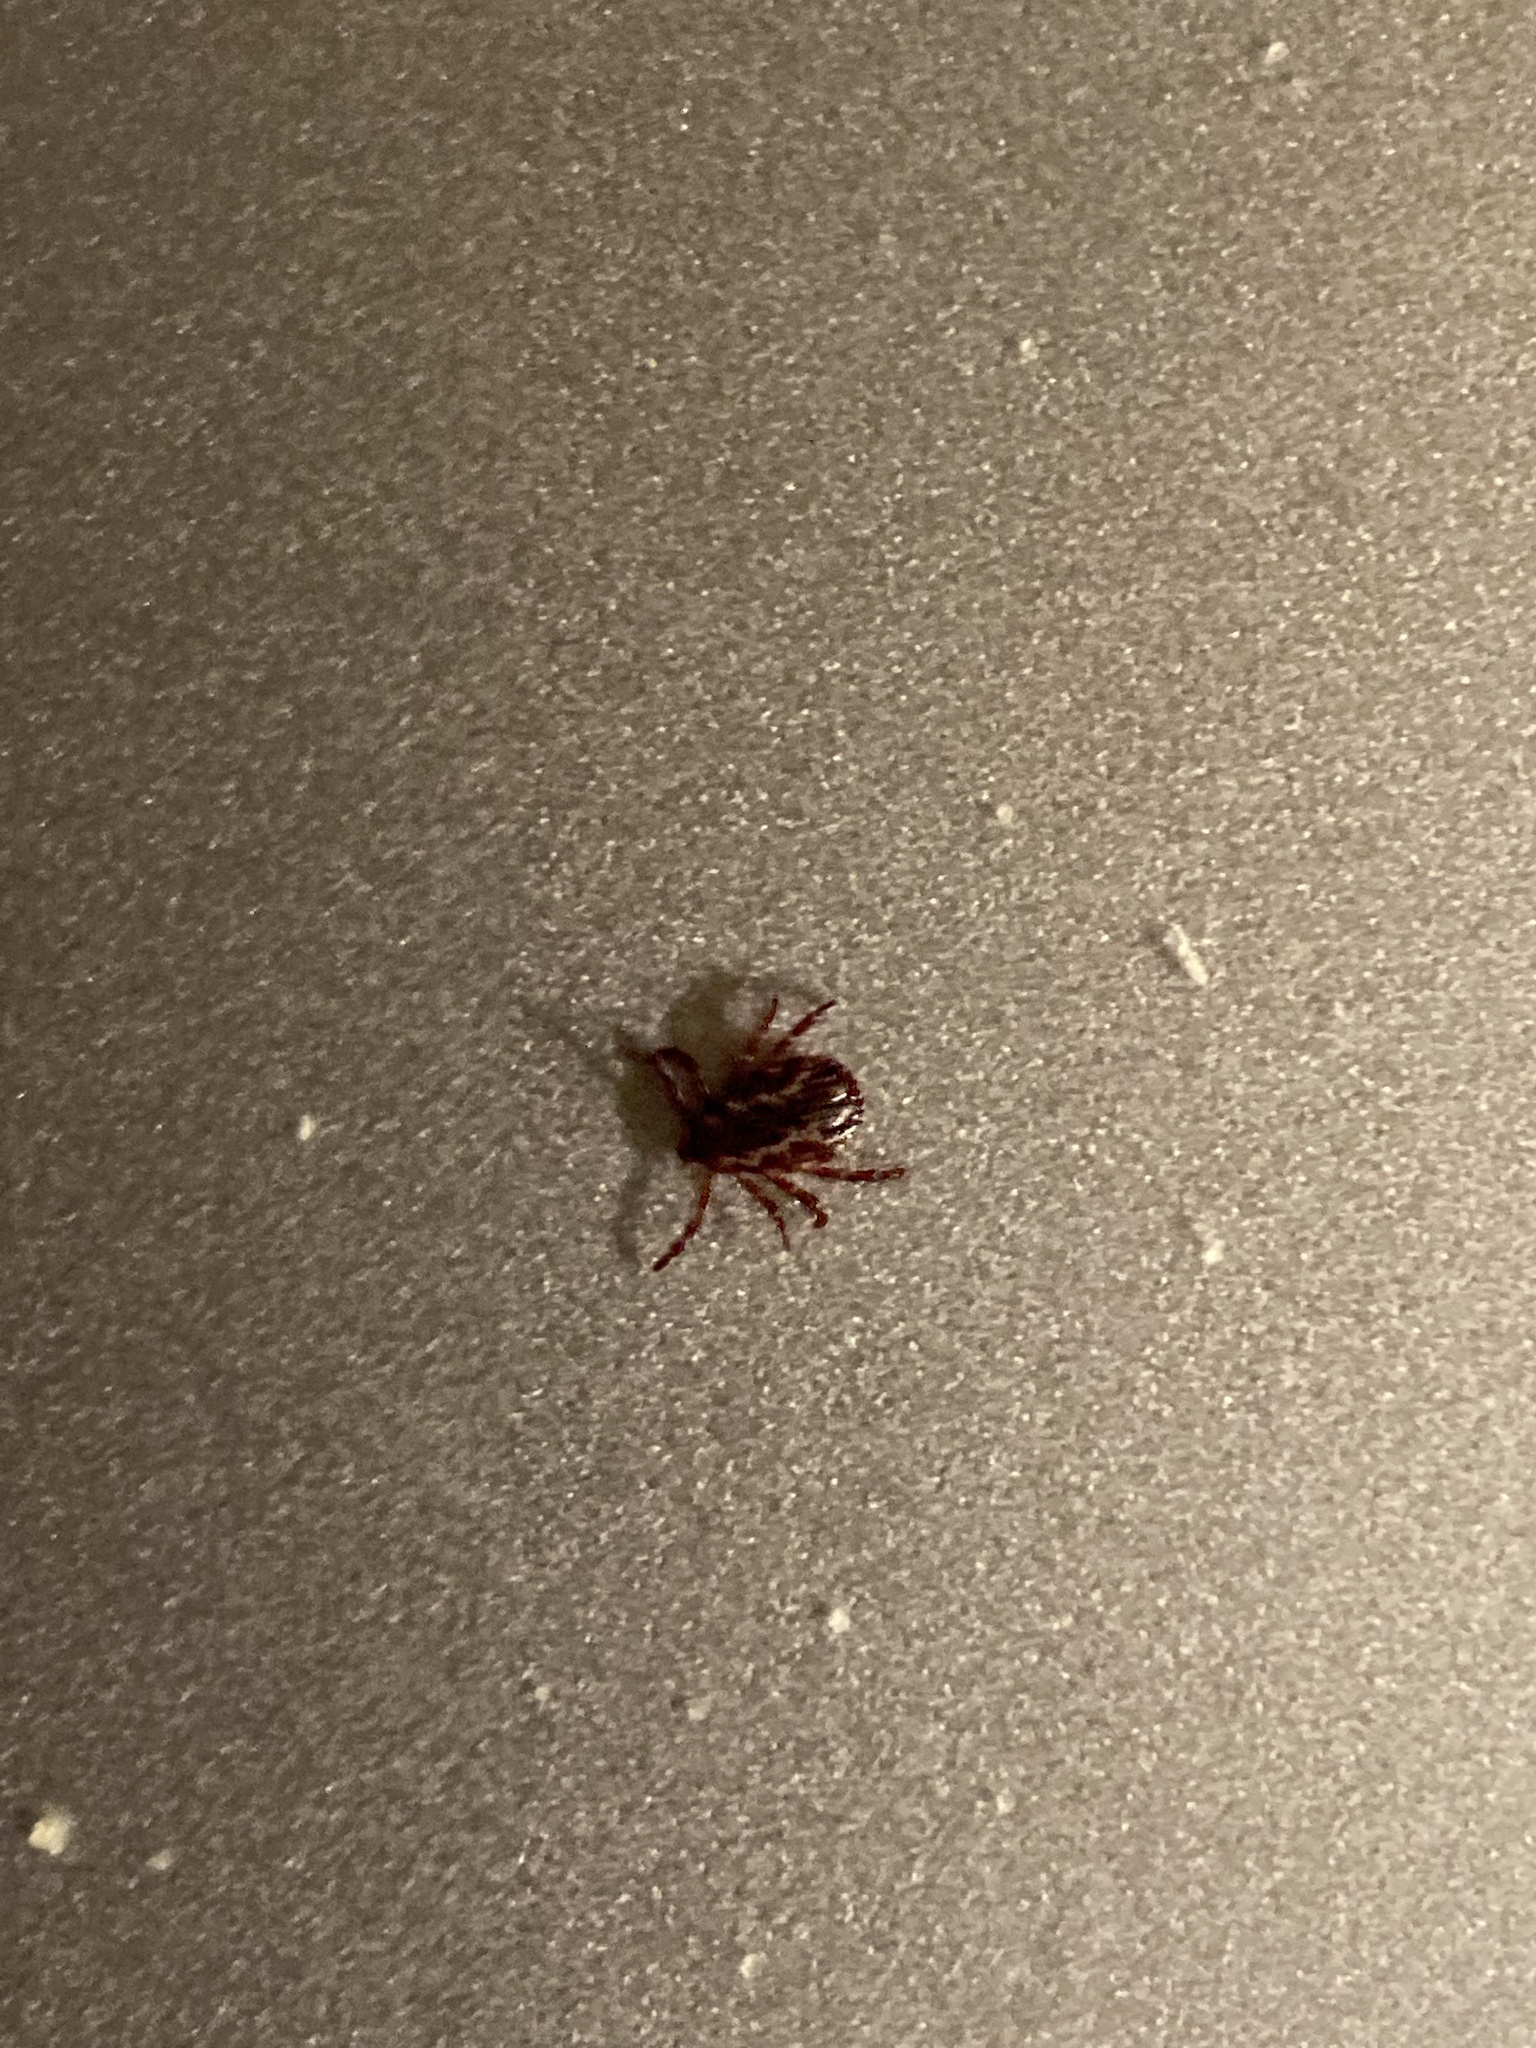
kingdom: Animalia
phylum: Arthropoda
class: Arachnida
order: Ixodida
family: Ixodidae
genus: Dermacentor
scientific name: Dermacentor variabilis
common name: American dog tick
